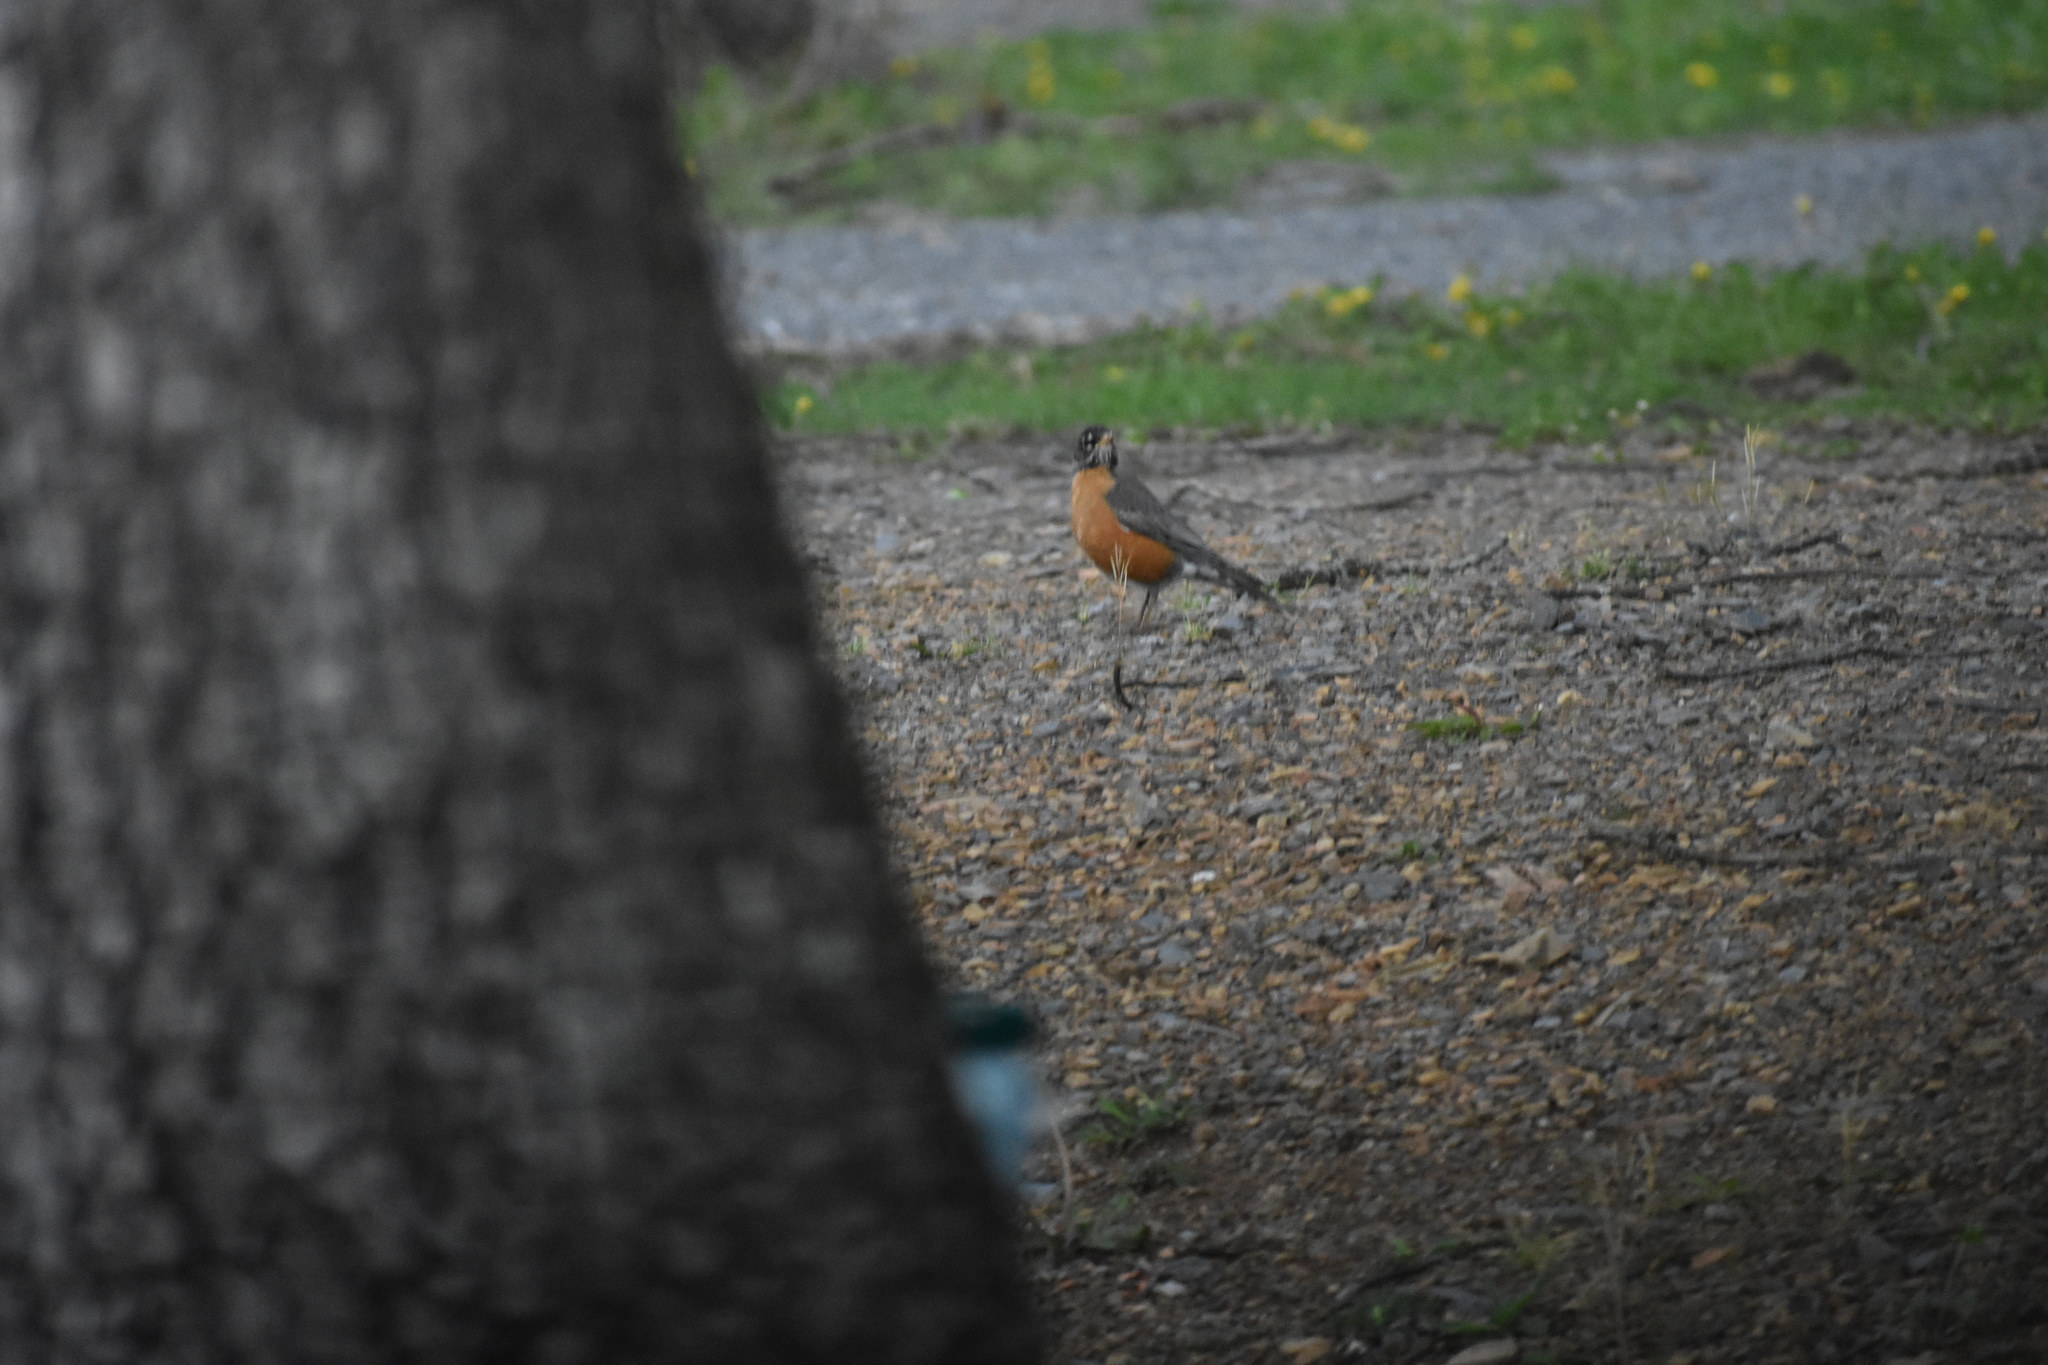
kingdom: Animalia
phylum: Chordata
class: Aves
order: Passeriformes
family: Turdidae
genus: Turdus
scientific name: Turdus migratorius
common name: American robin
